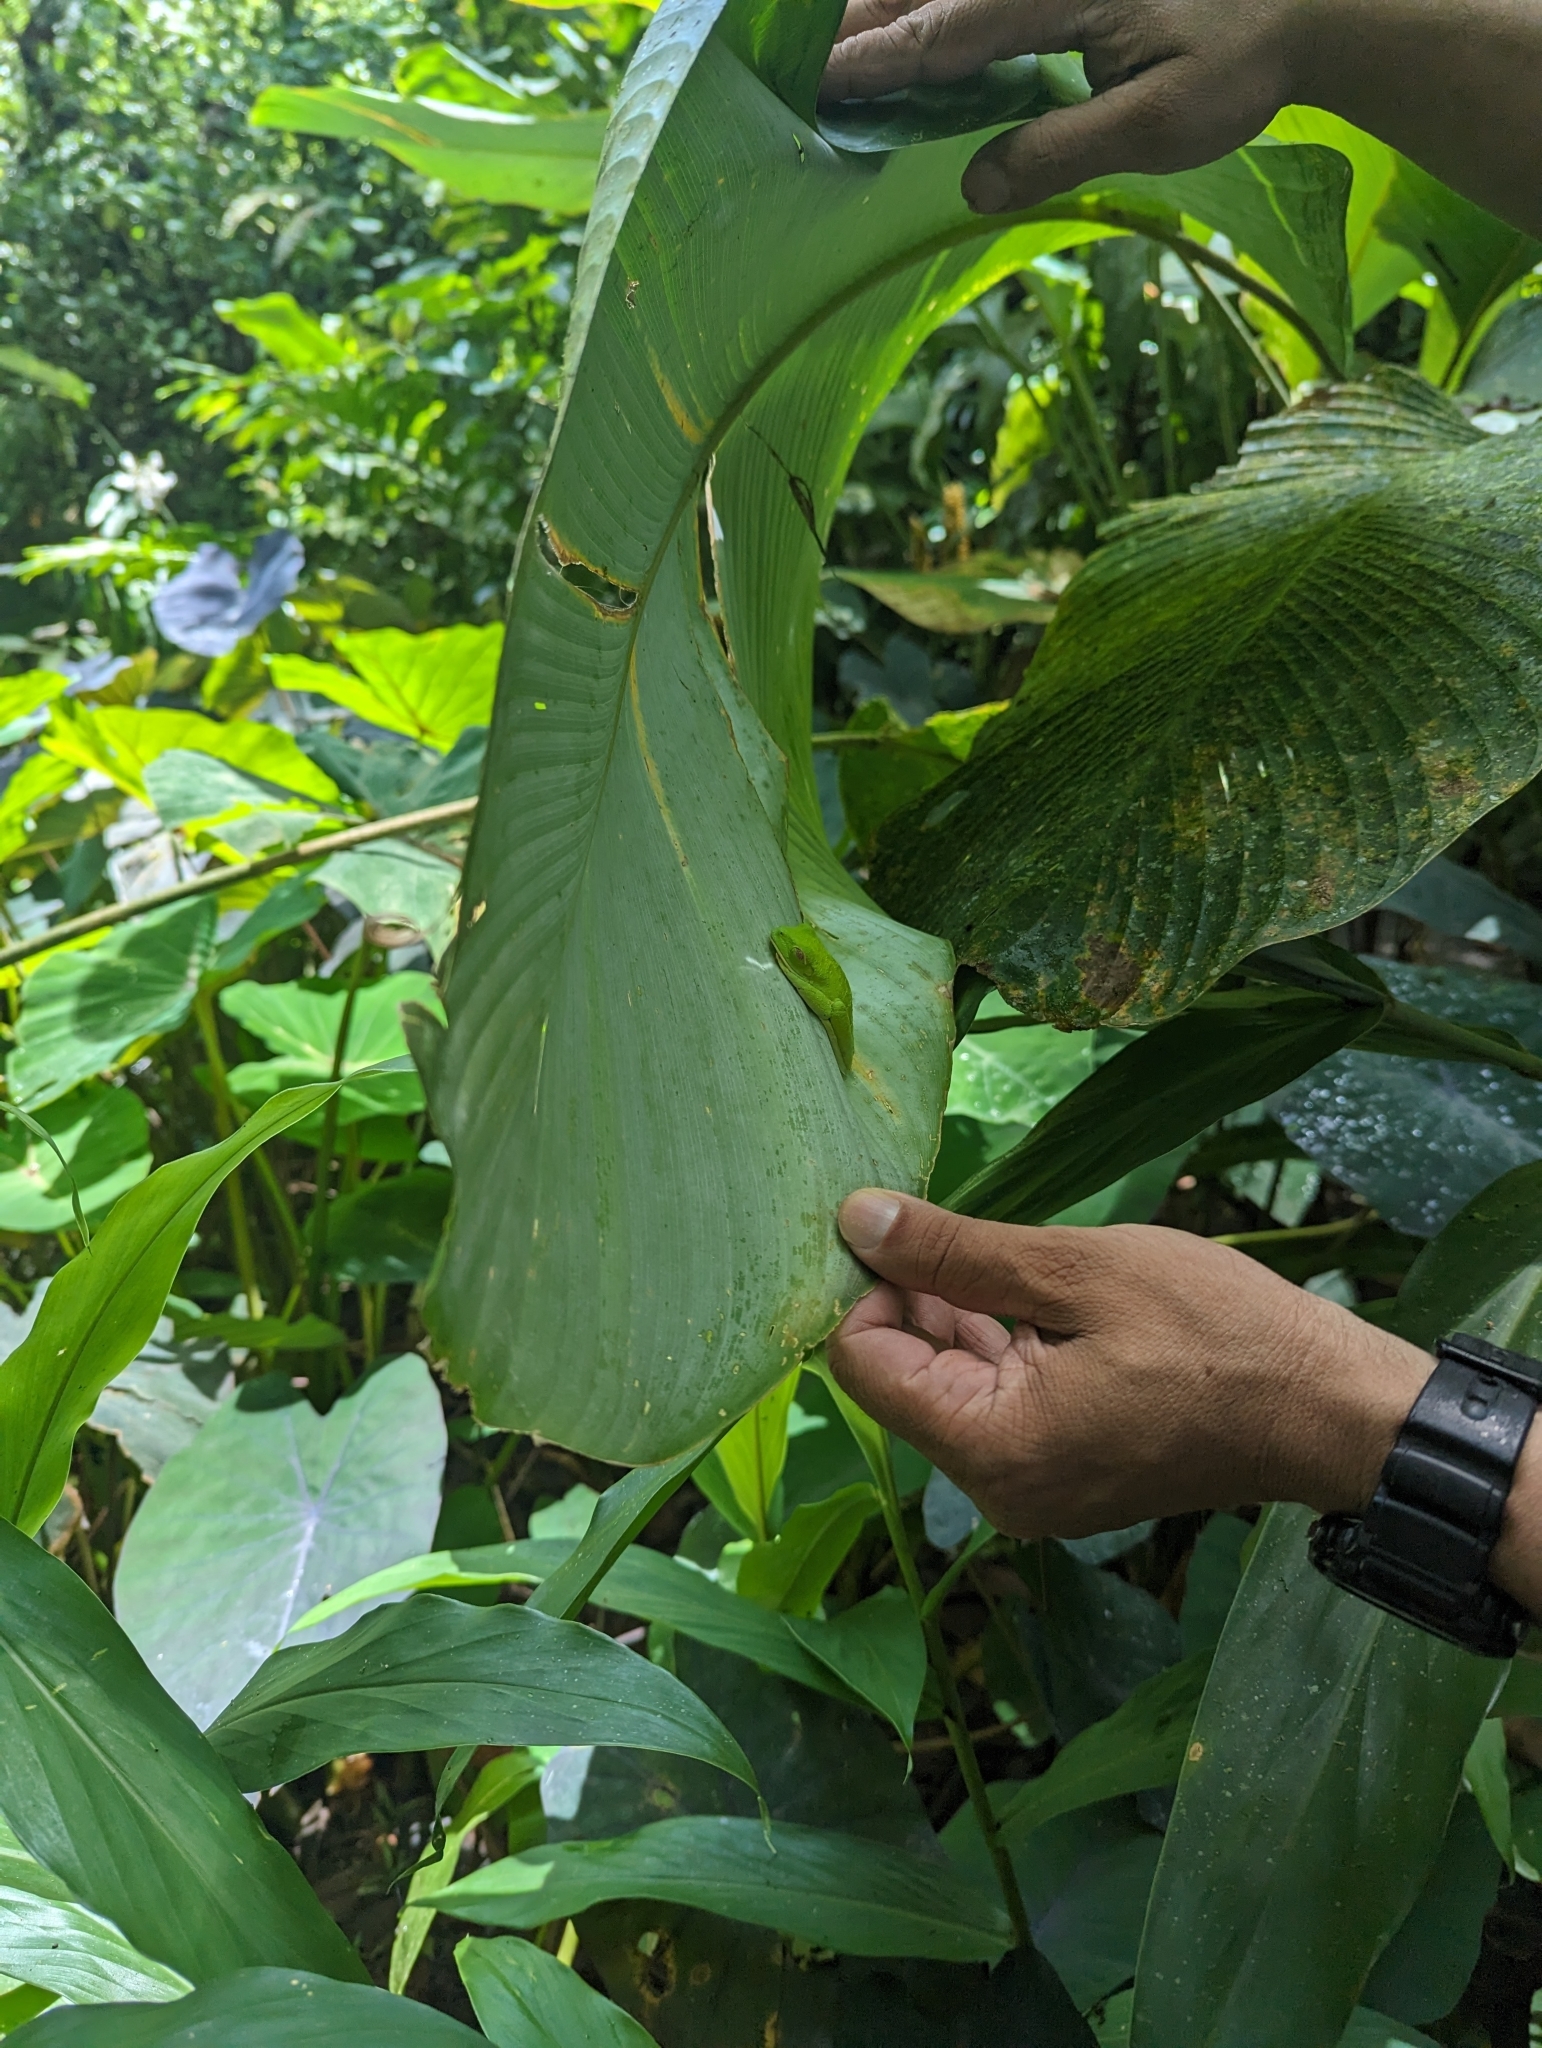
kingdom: Animalia
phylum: Chordata
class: Amphibia
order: Anura
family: Phyllomedusidae
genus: Agalychnis
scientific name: Agalychnis callidryas
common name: Red-eyed treefrog
